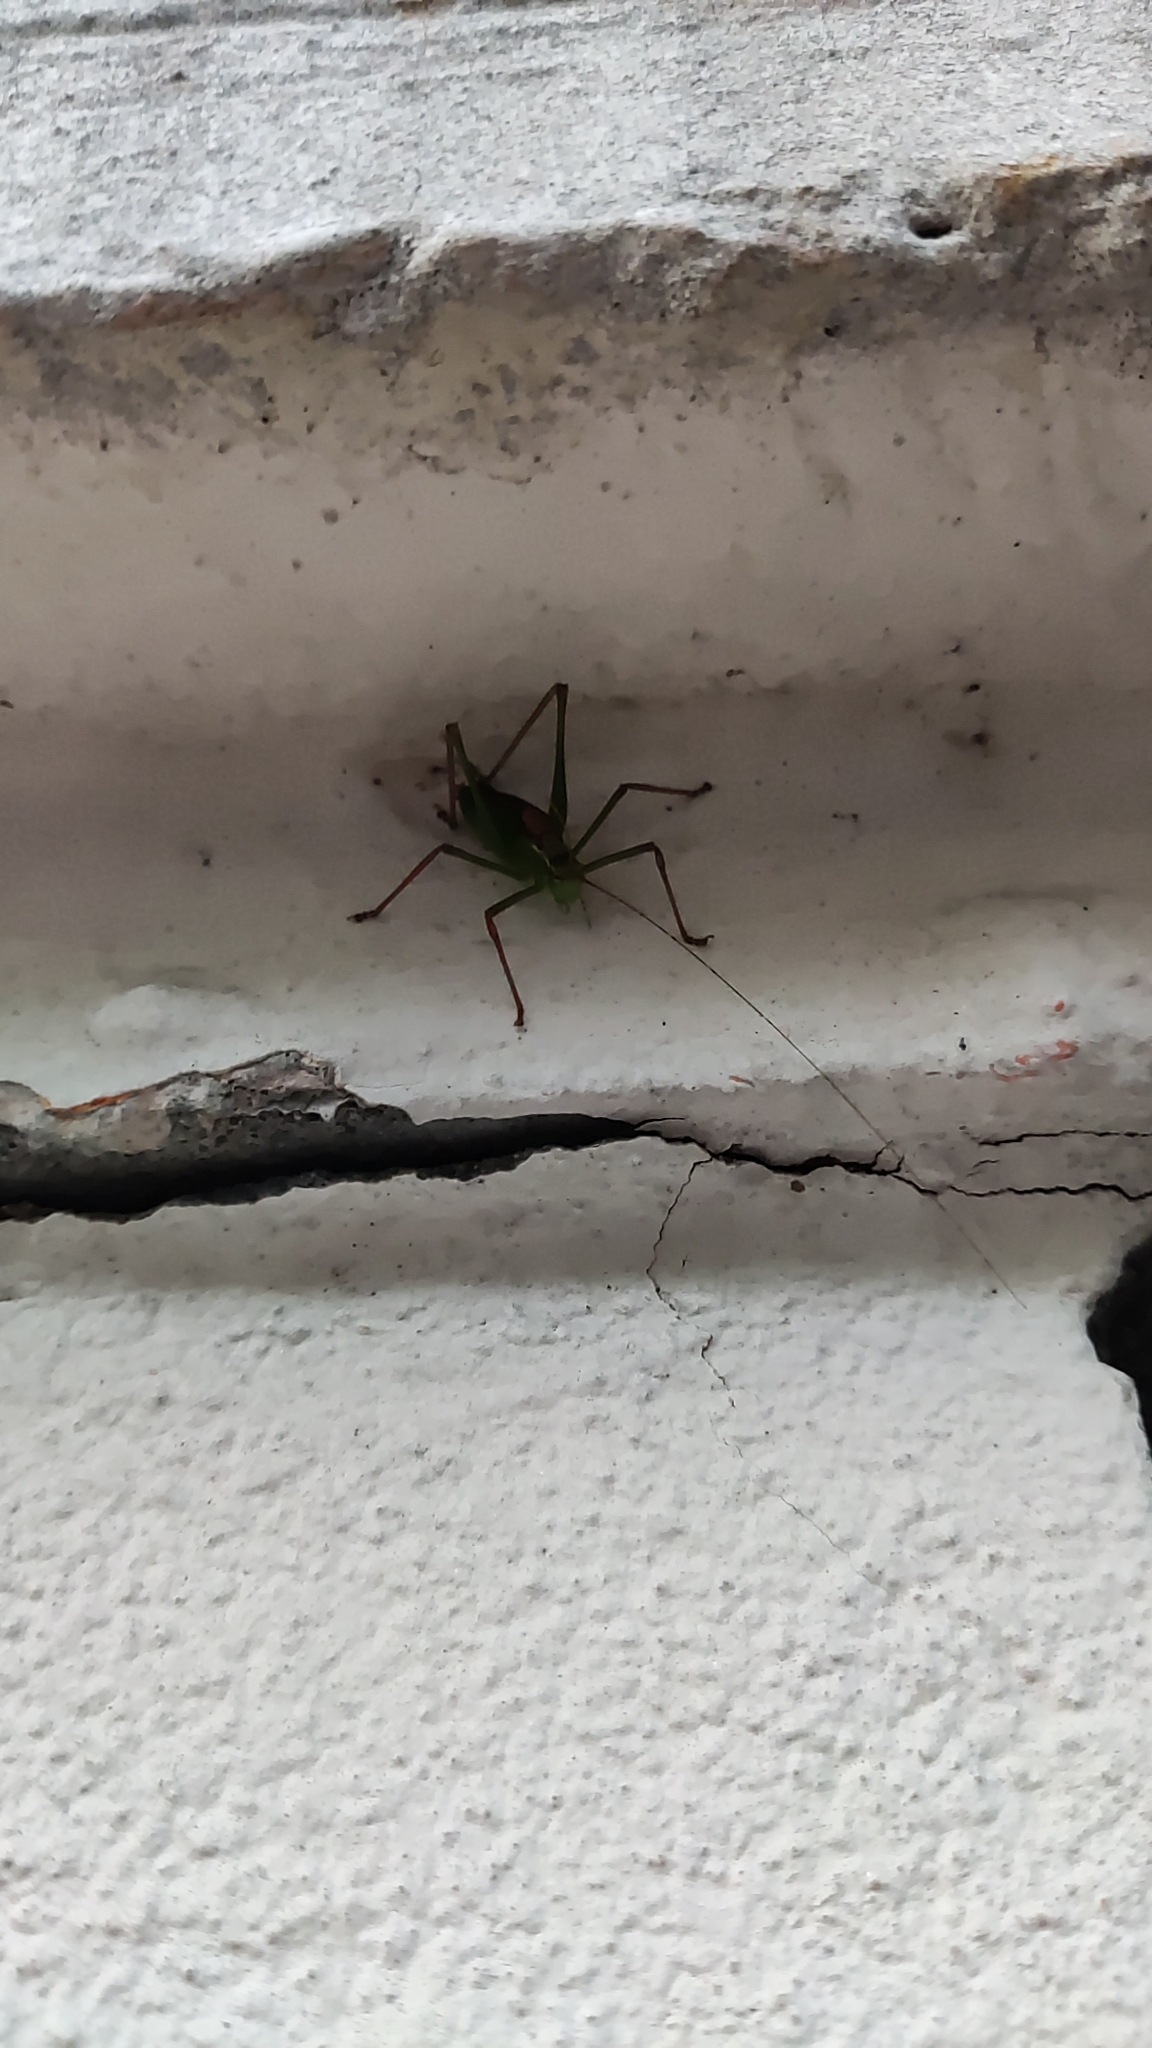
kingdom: Animalia
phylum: Arthropoda
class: Insecta
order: Orthoptera
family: Tettigoniidae
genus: Leptophyes
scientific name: Leptophyes punctatissima
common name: Speckled bush-cricket
